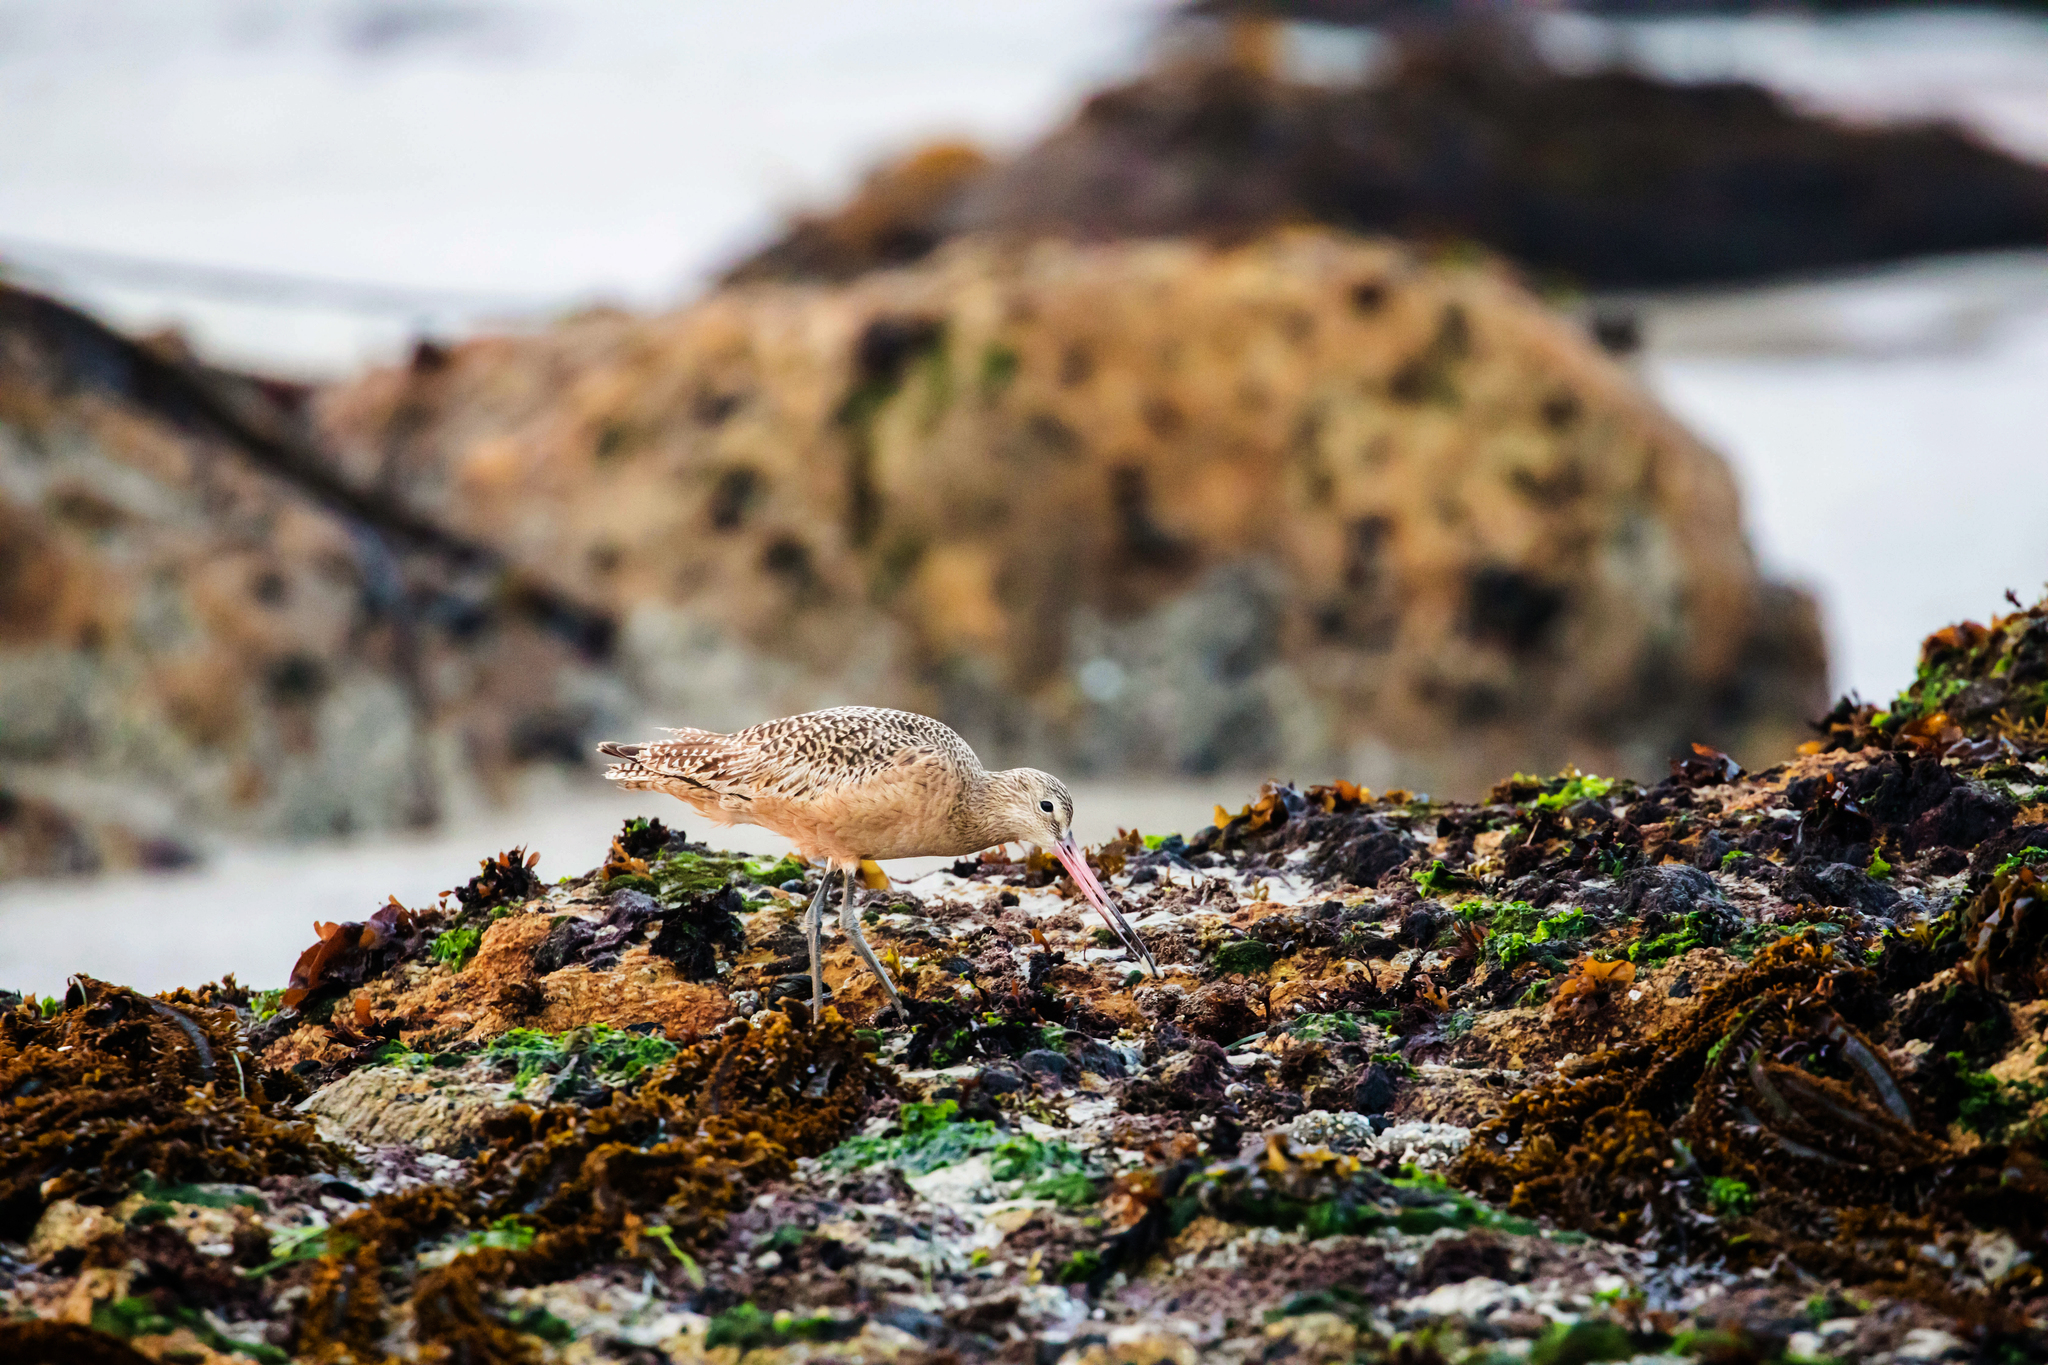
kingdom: Animalia
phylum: Chordata
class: Aves
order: Charadriiformes
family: Scolopacidae
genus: Limosa
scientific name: Limosa fedoa
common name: Marbled godwit
